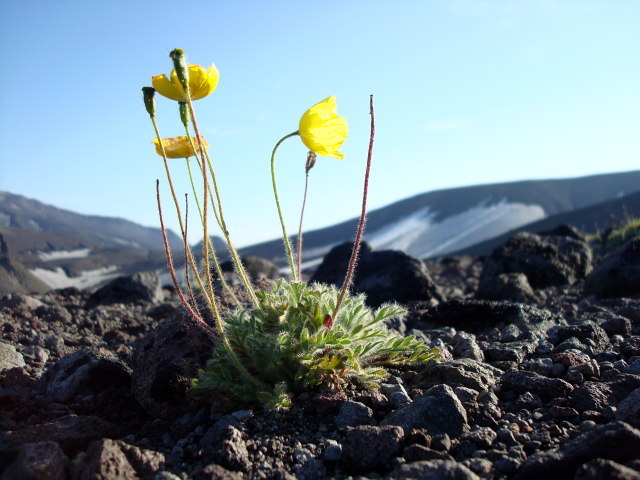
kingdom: Plantae
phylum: Tracheophyta
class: Magnoliopsida
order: Ranunculales
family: Papaveraceae
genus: Papaver
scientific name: Papaver microcarpum
